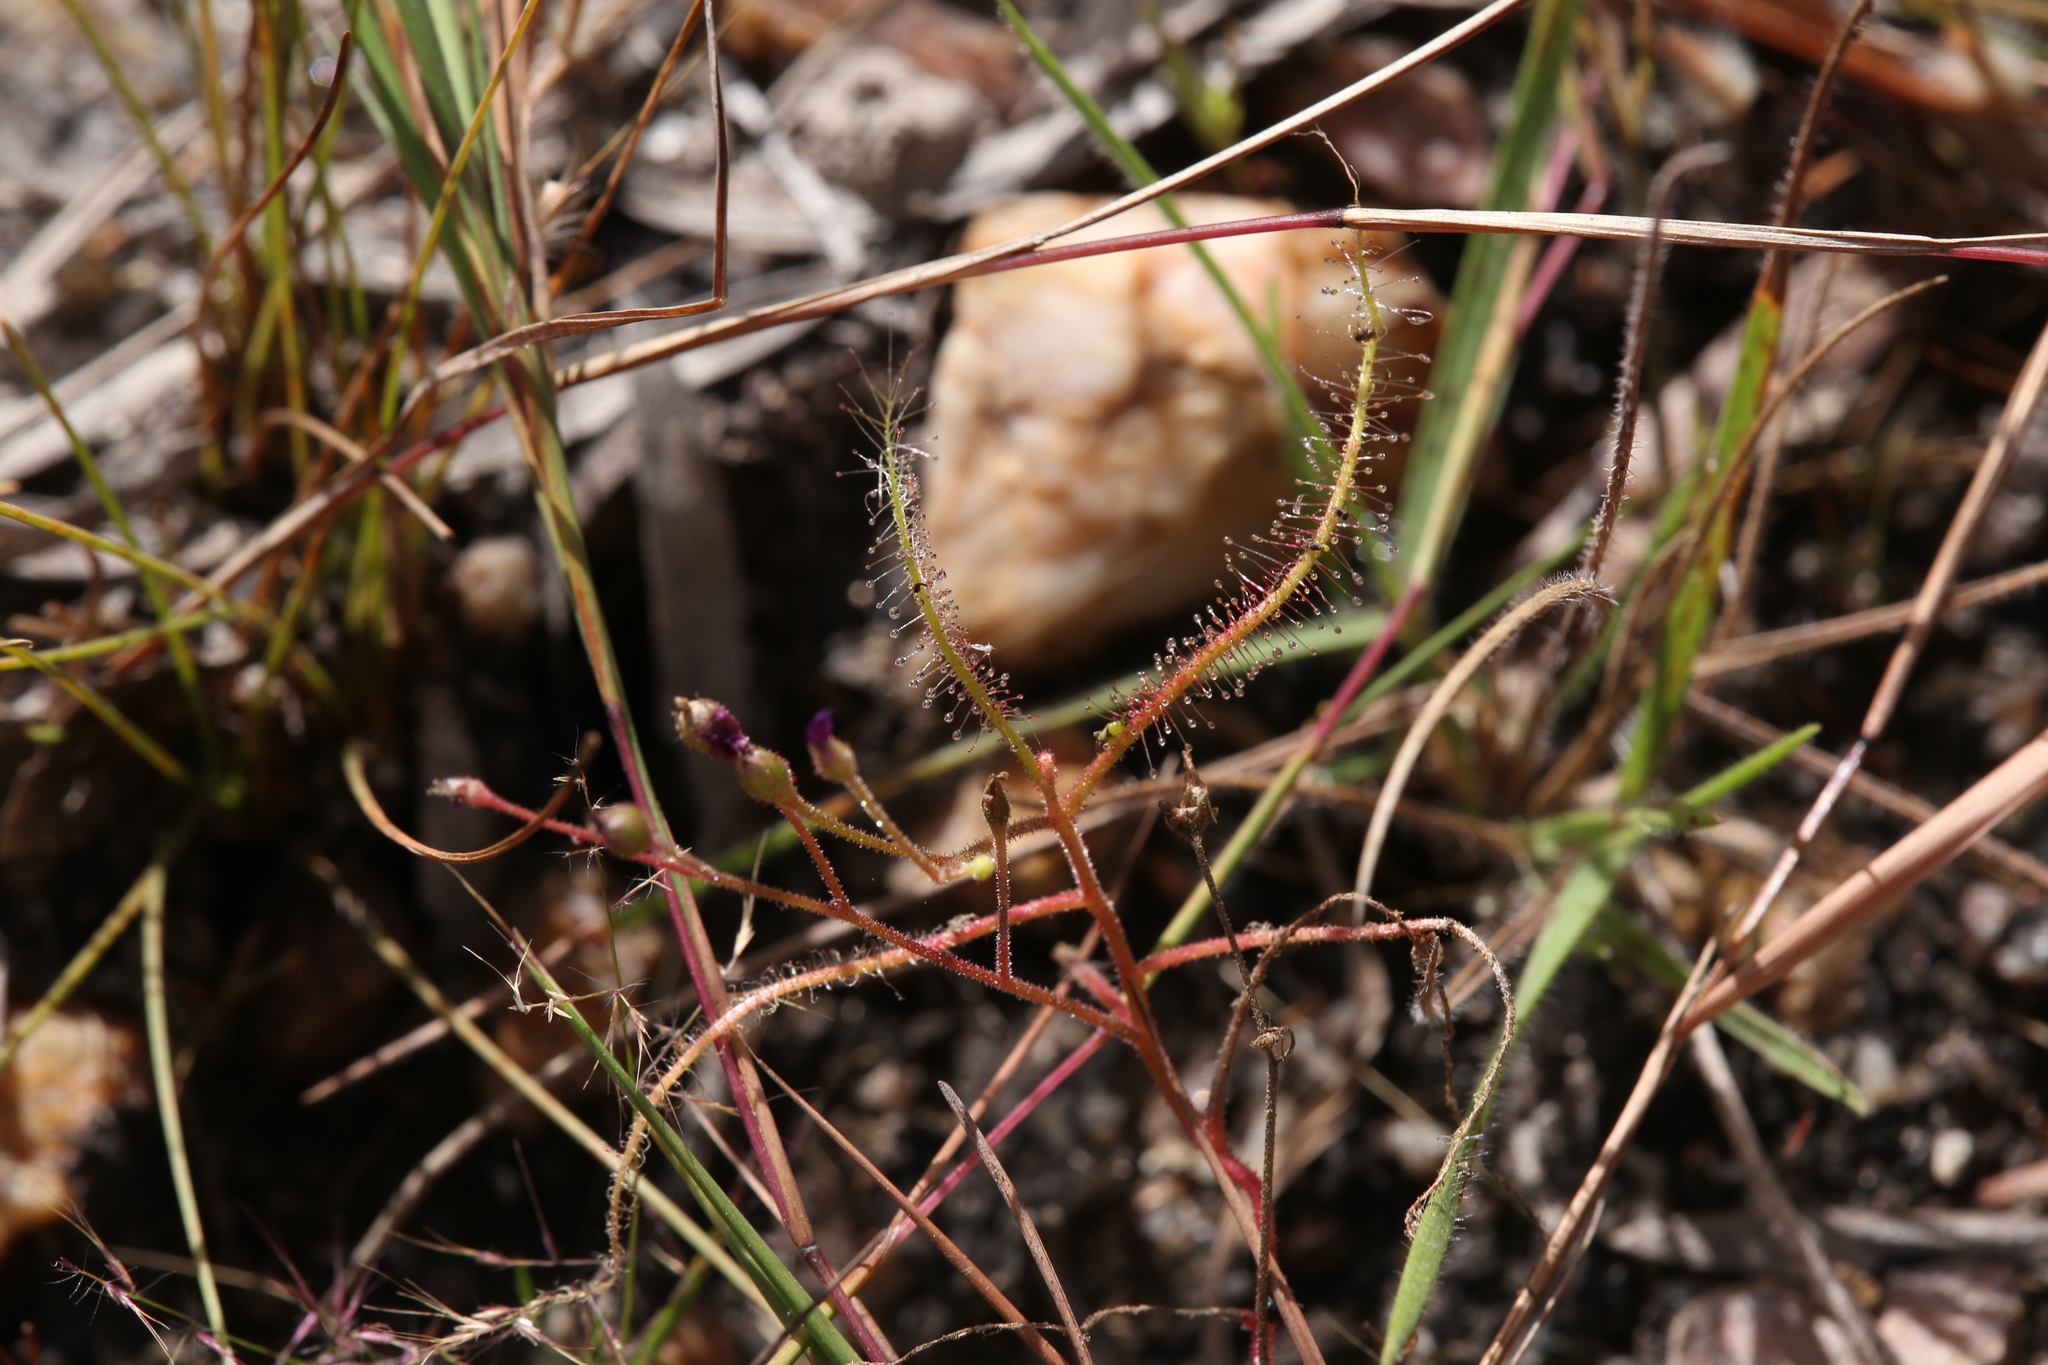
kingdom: Plantae
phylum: Tracheophyta
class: Magnoliopsida
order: Caryophyllales
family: Droseraceae
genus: Drosera
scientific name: Drosera indica
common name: Indian sundew
